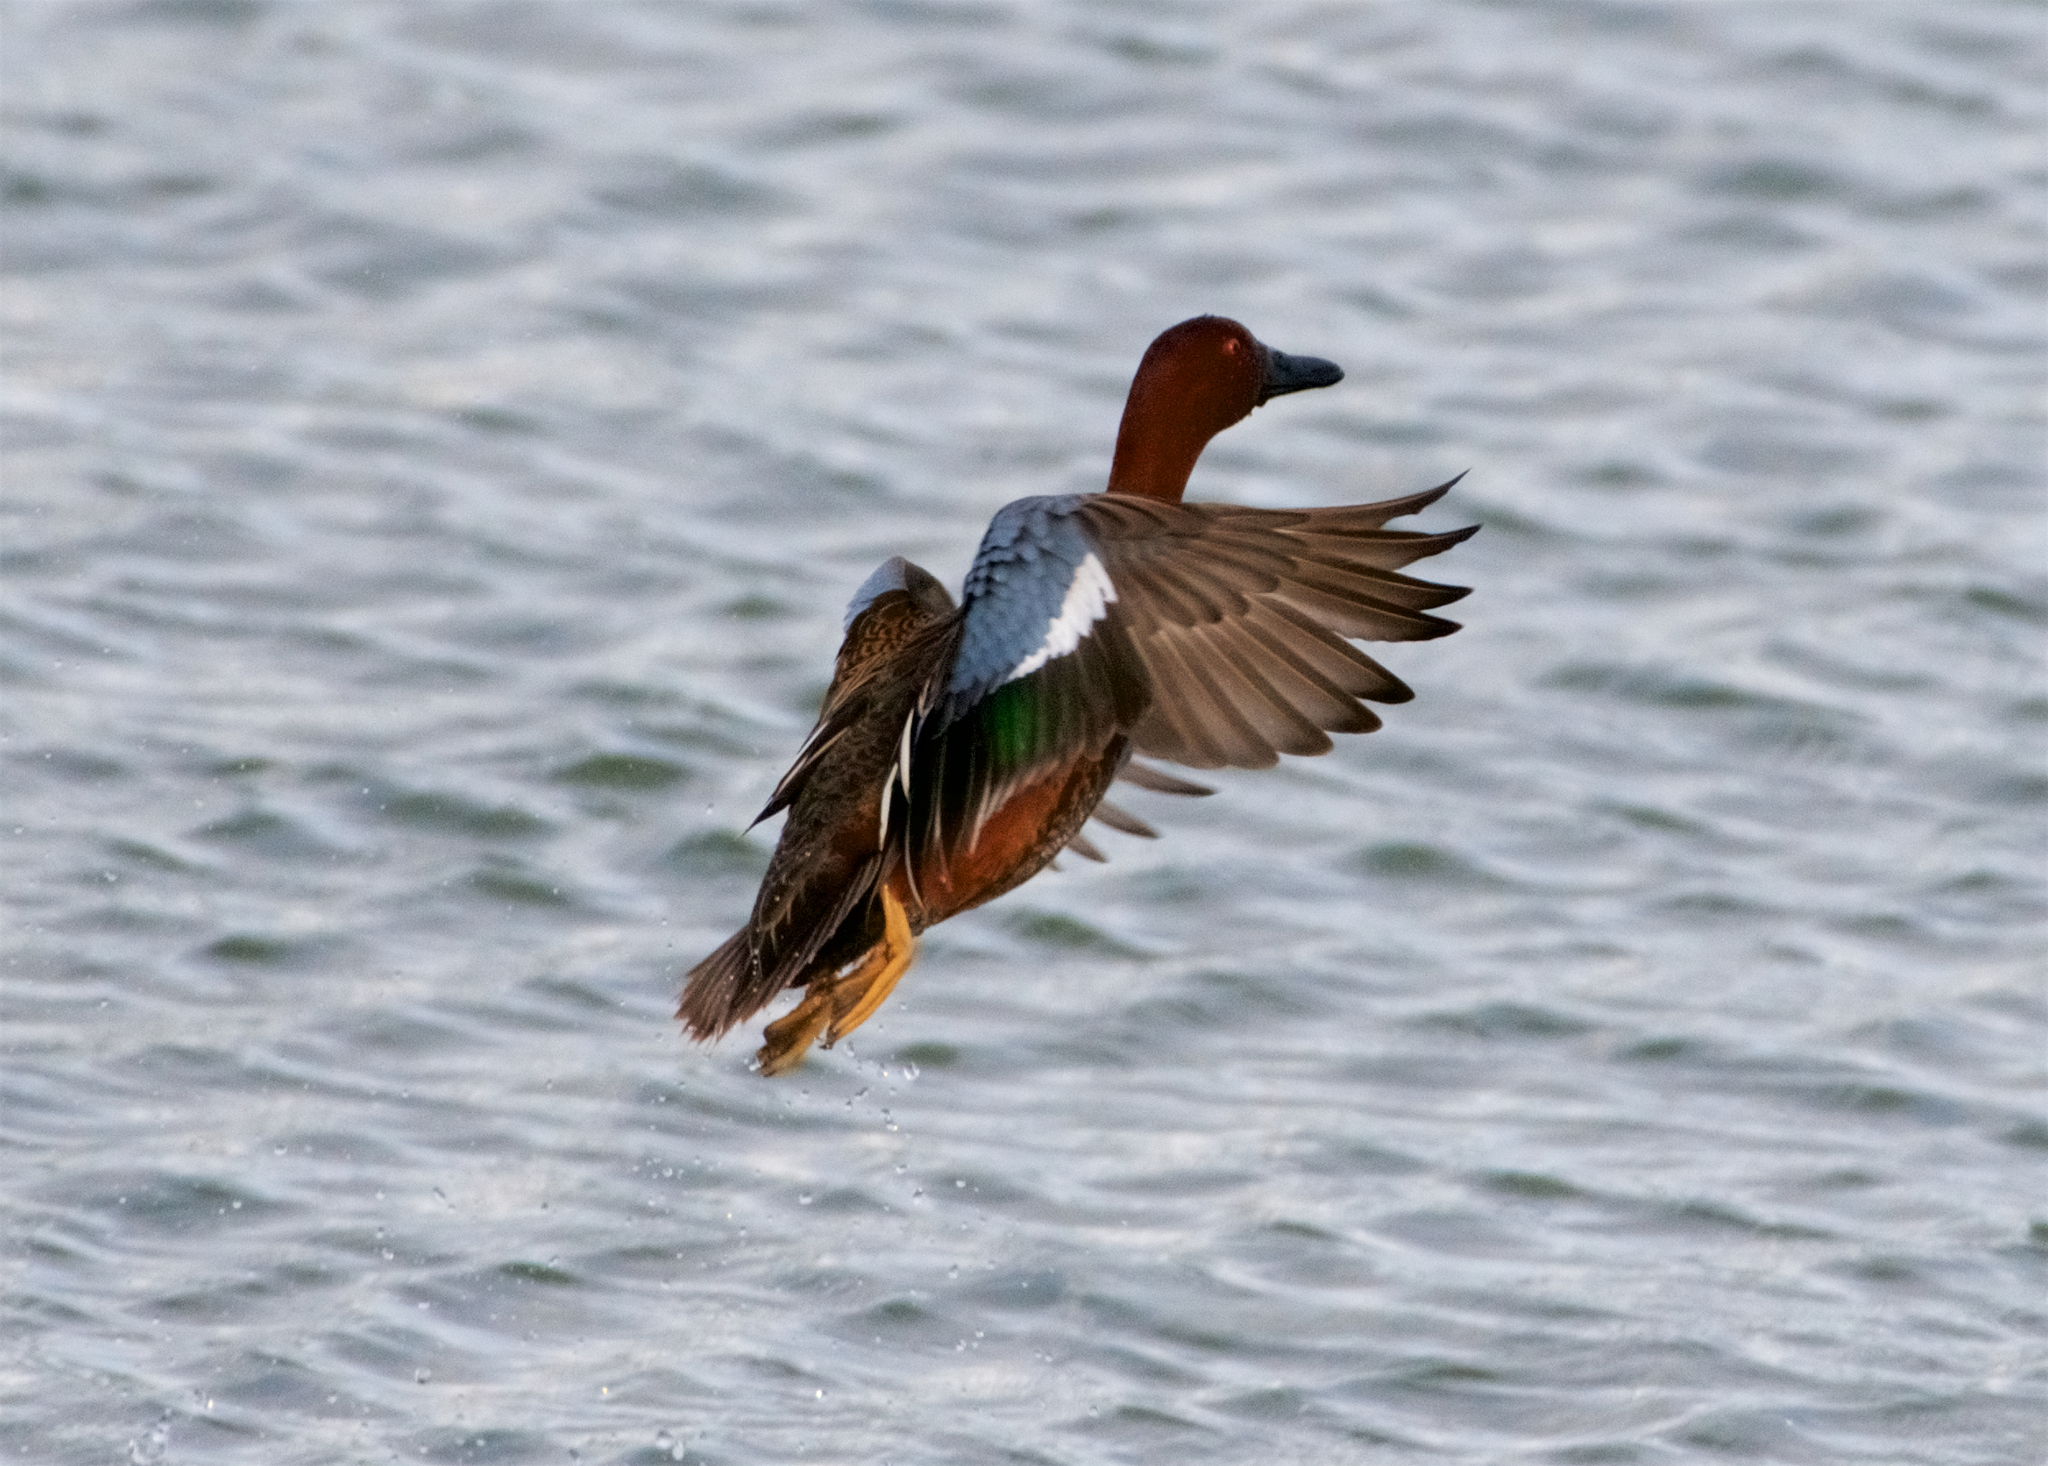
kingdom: Animalia
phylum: Chordata
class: Aves
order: Anseriformes
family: Anatidae
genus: Spatula
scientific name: Spatula cyanoptera
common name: Cinnamon teal
